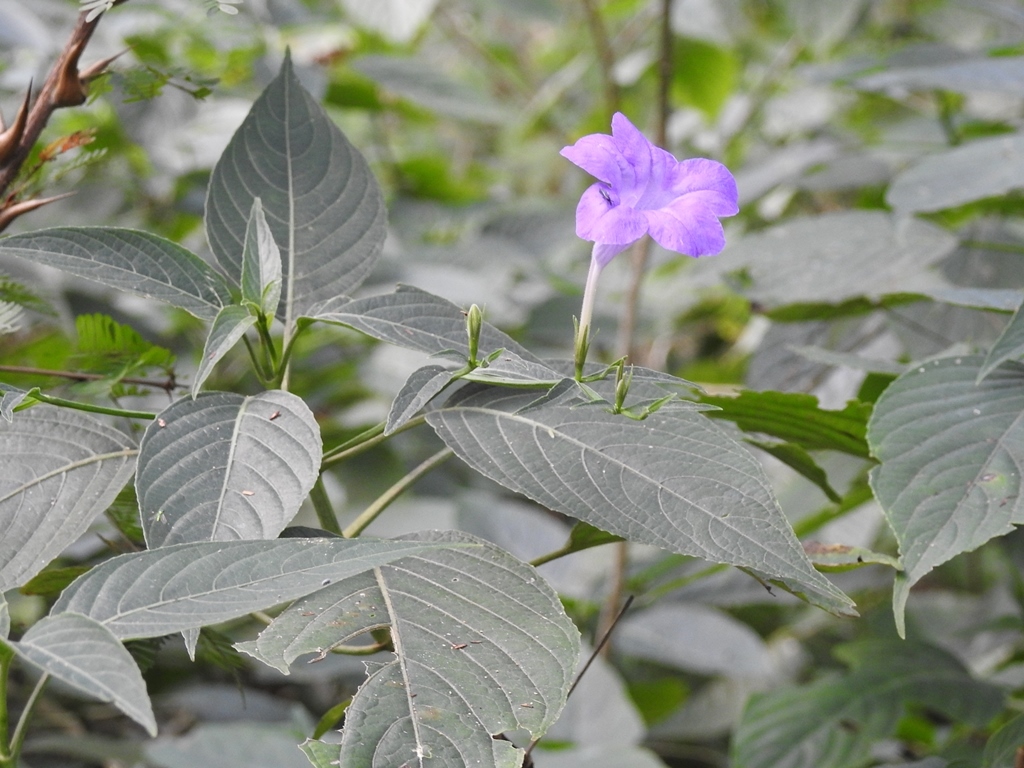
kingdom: Plantae
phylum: Tracheophyta
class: Magnoliopsida
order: Lamiales
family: Acanthaceae
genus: Ruellia
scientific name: Ruellia breedlovei
